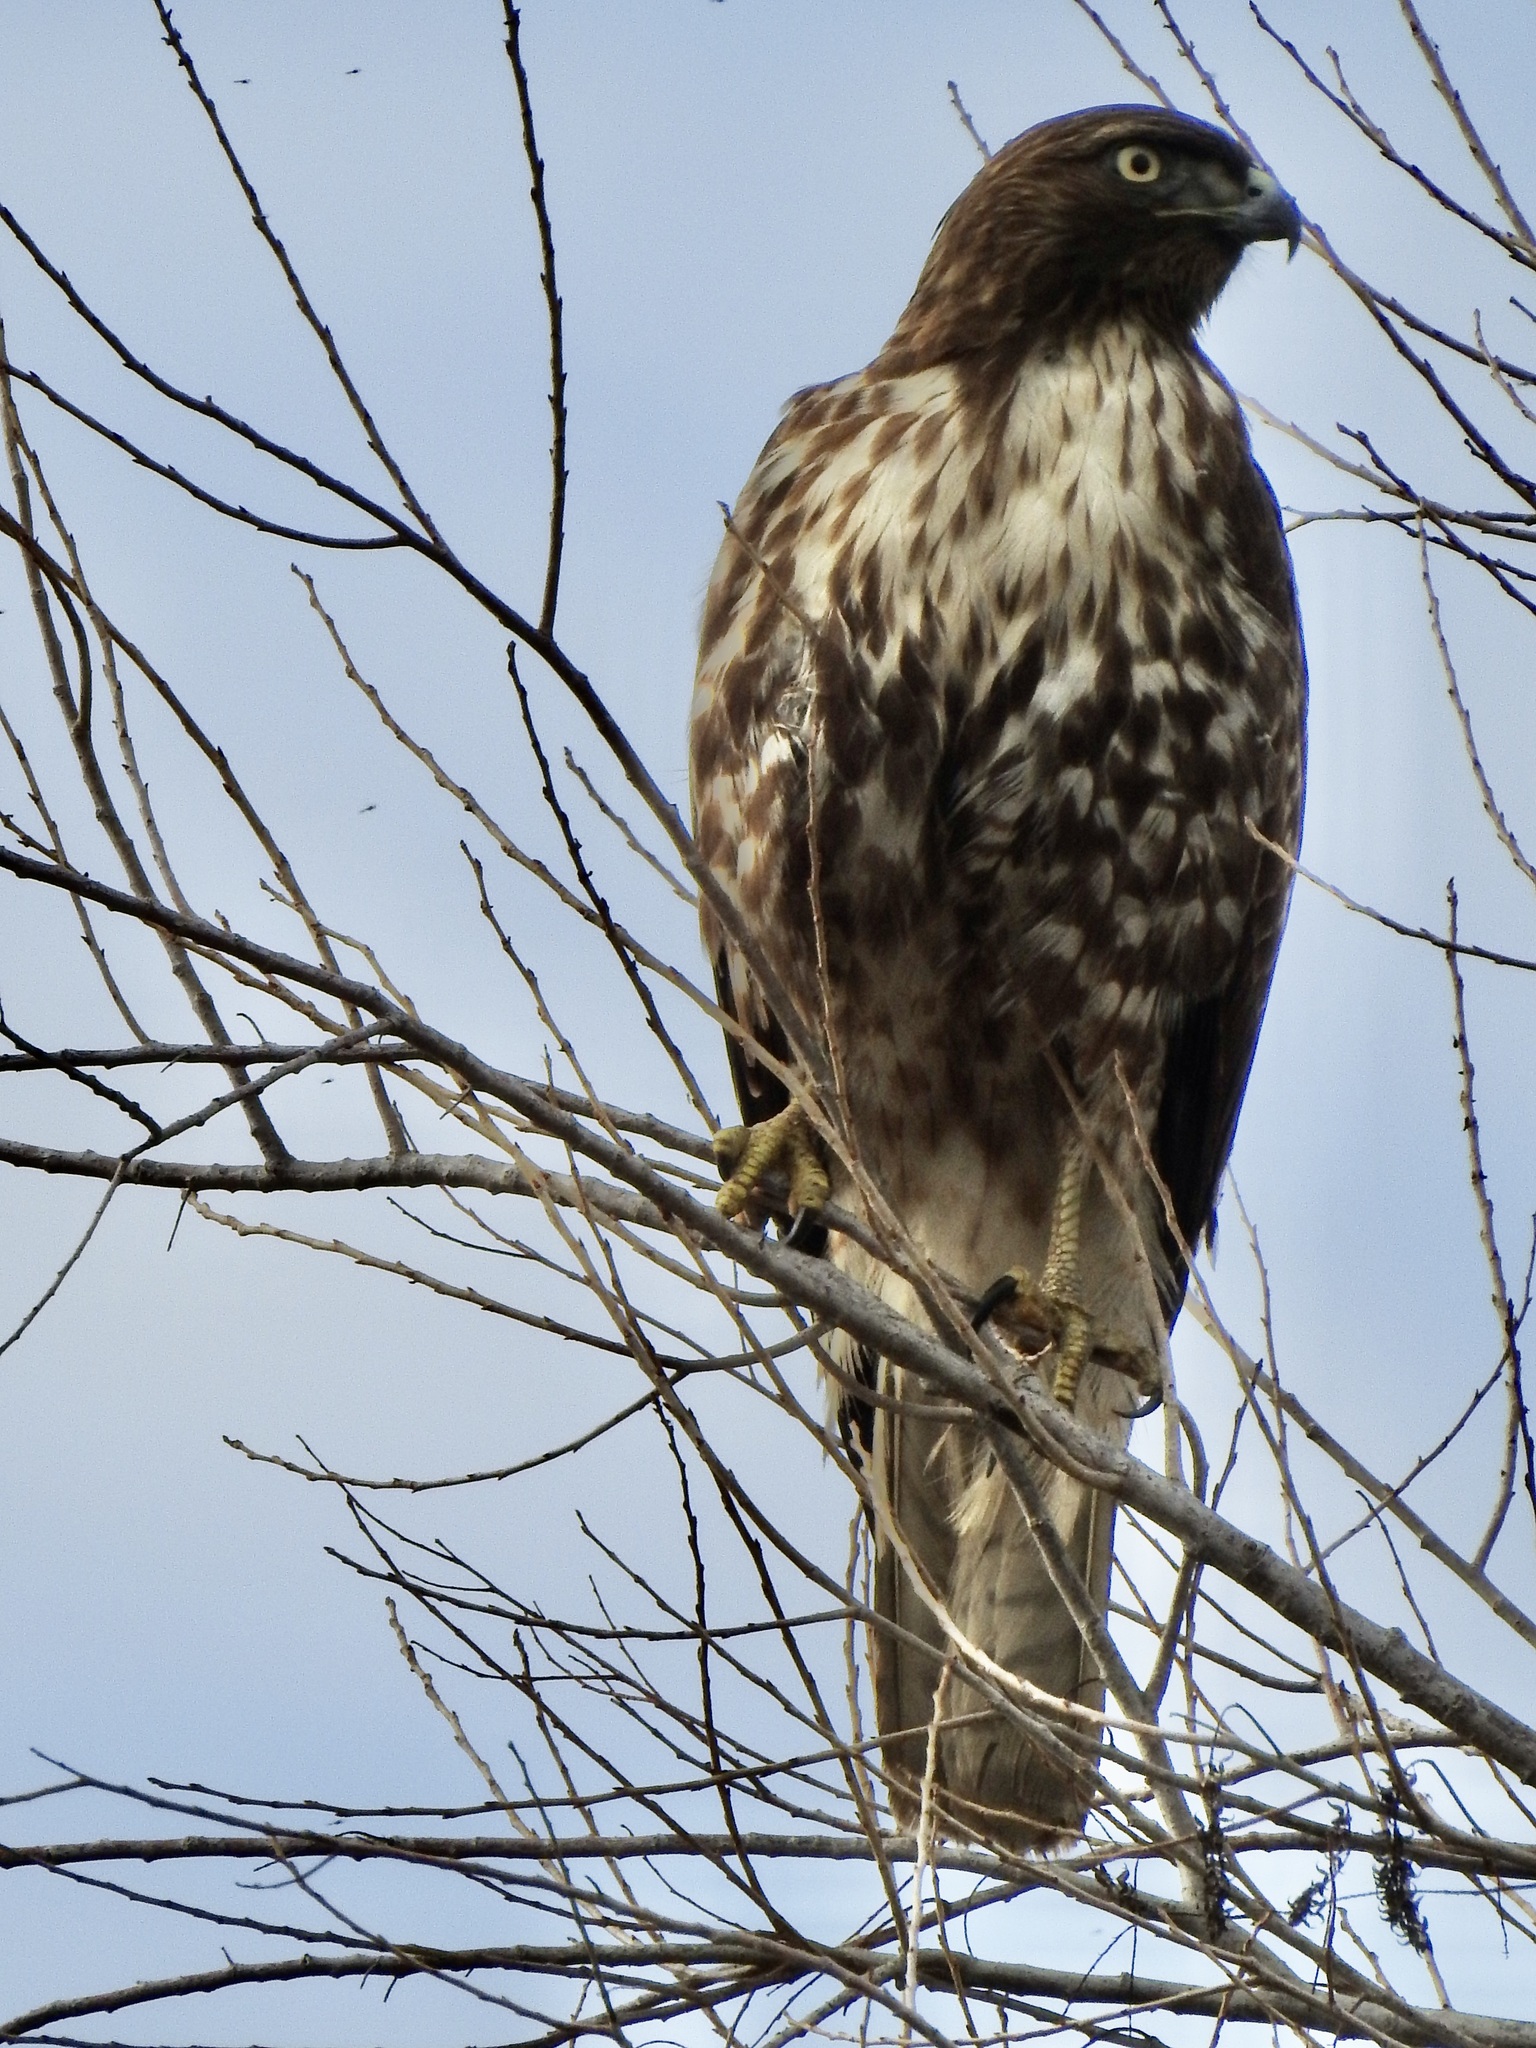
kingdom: Animalia
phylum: Chordata
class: Aves
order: Accipitriformes
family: Accipitridae
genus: Buteo
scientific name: Buteo jamaicensis
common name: Red-tailed hawk
